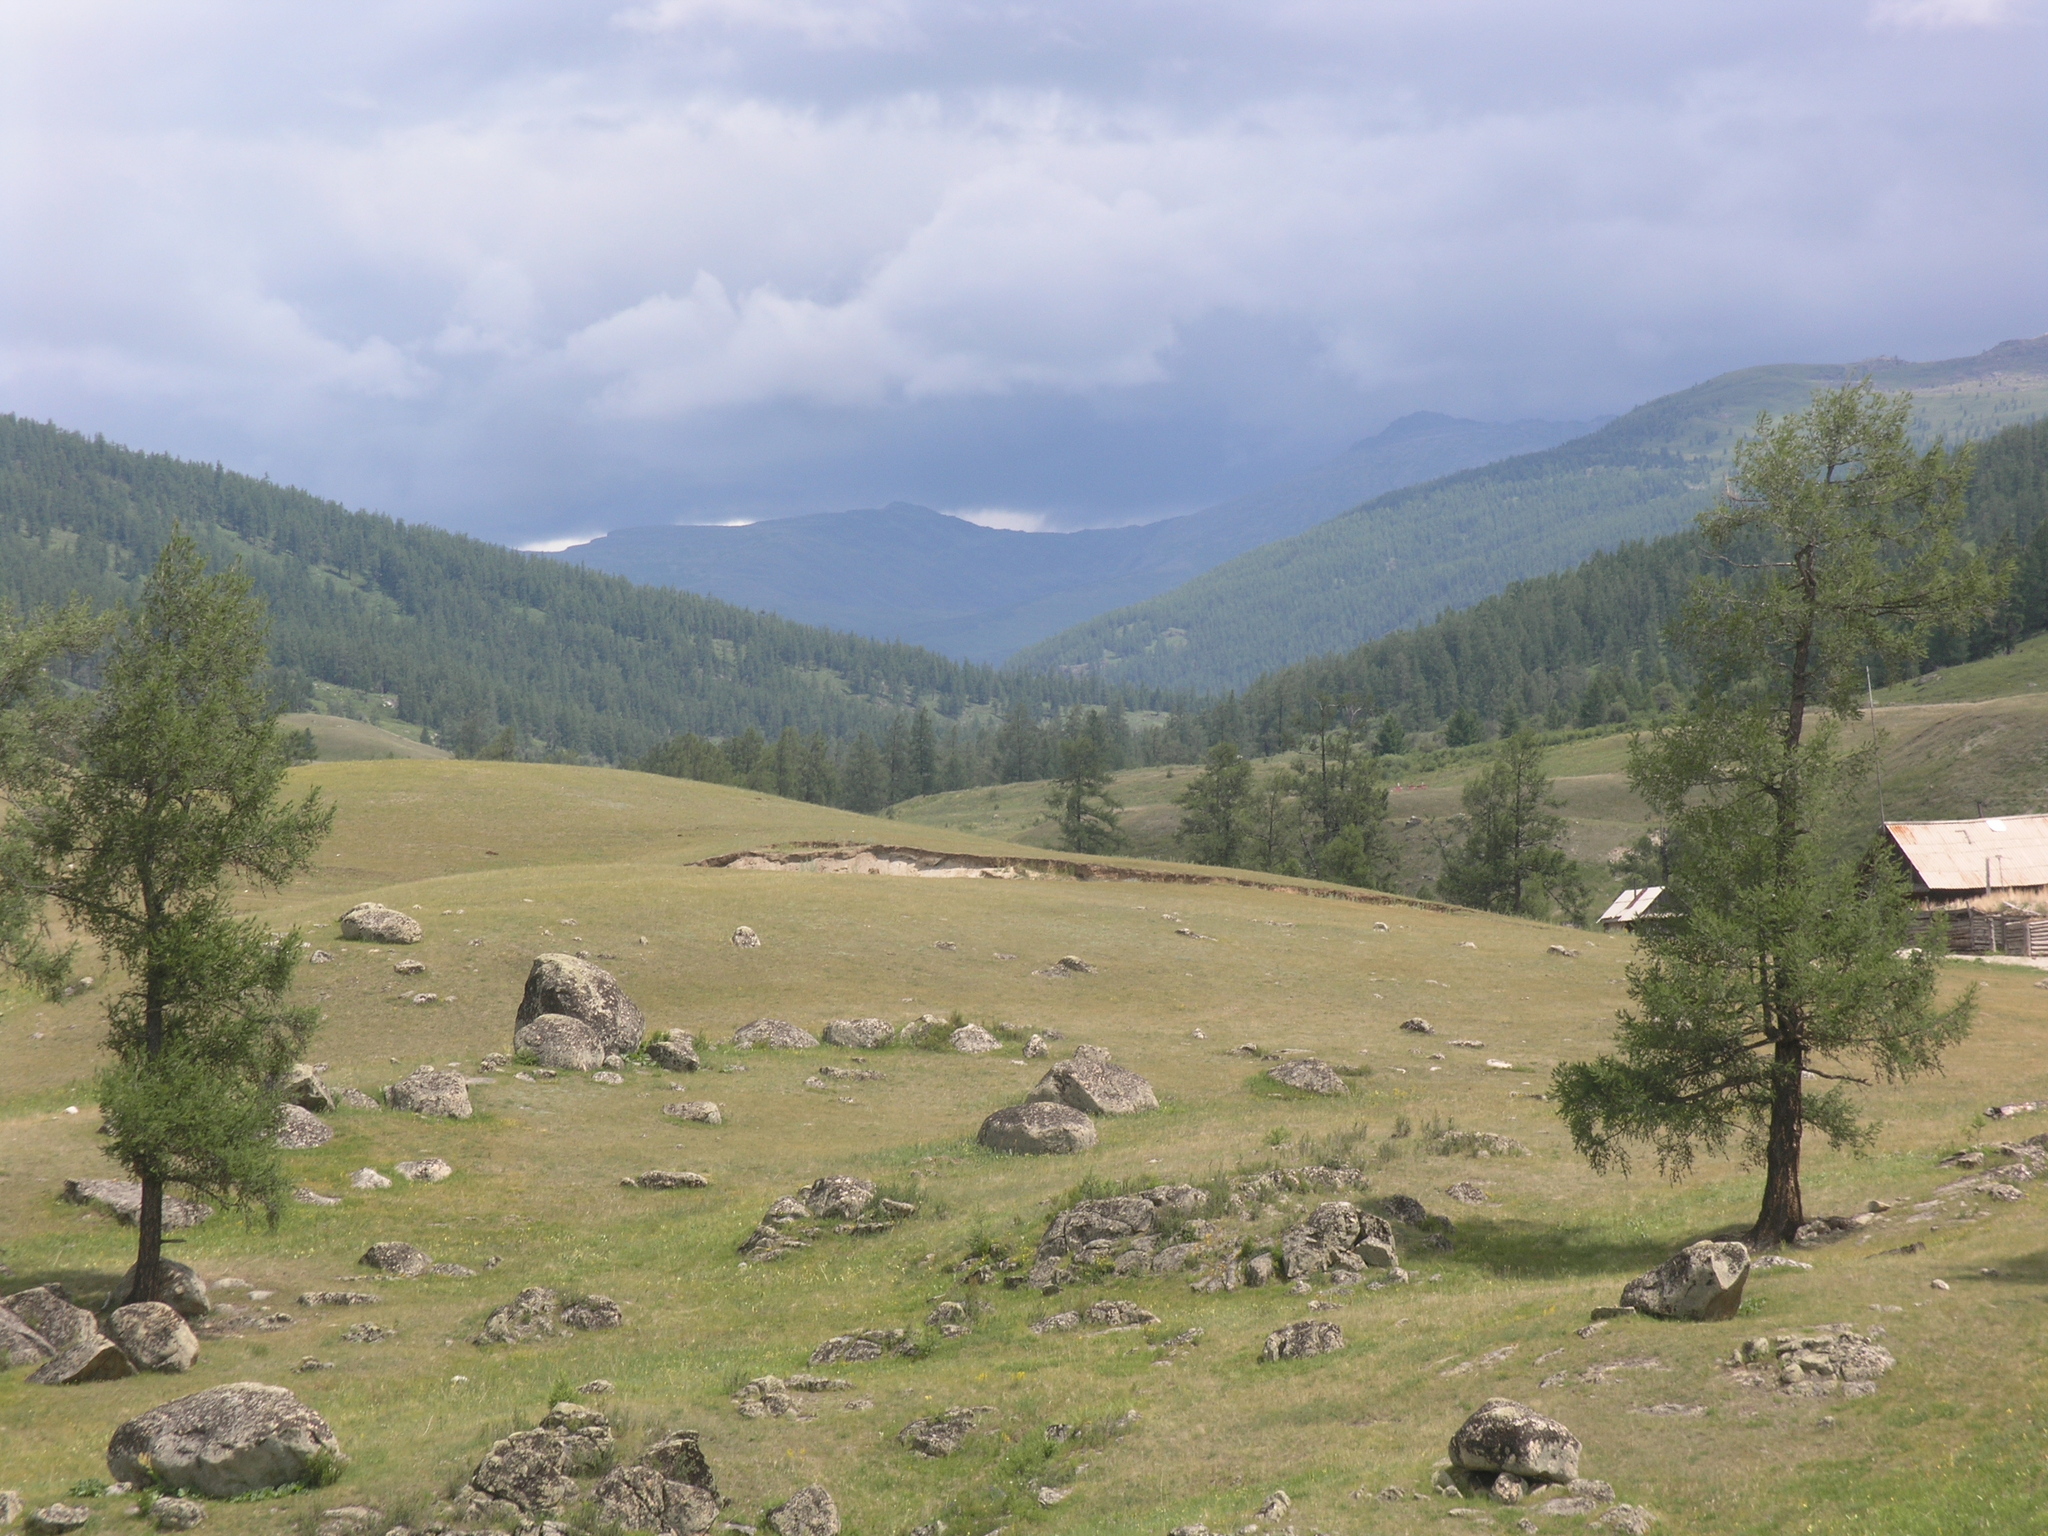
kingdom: Plantae
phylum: Tracheophyta
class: Pinopsida
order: Pinales
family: Pinaceae
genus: Larix
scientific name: Larix sibirica
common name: Siberian larch
